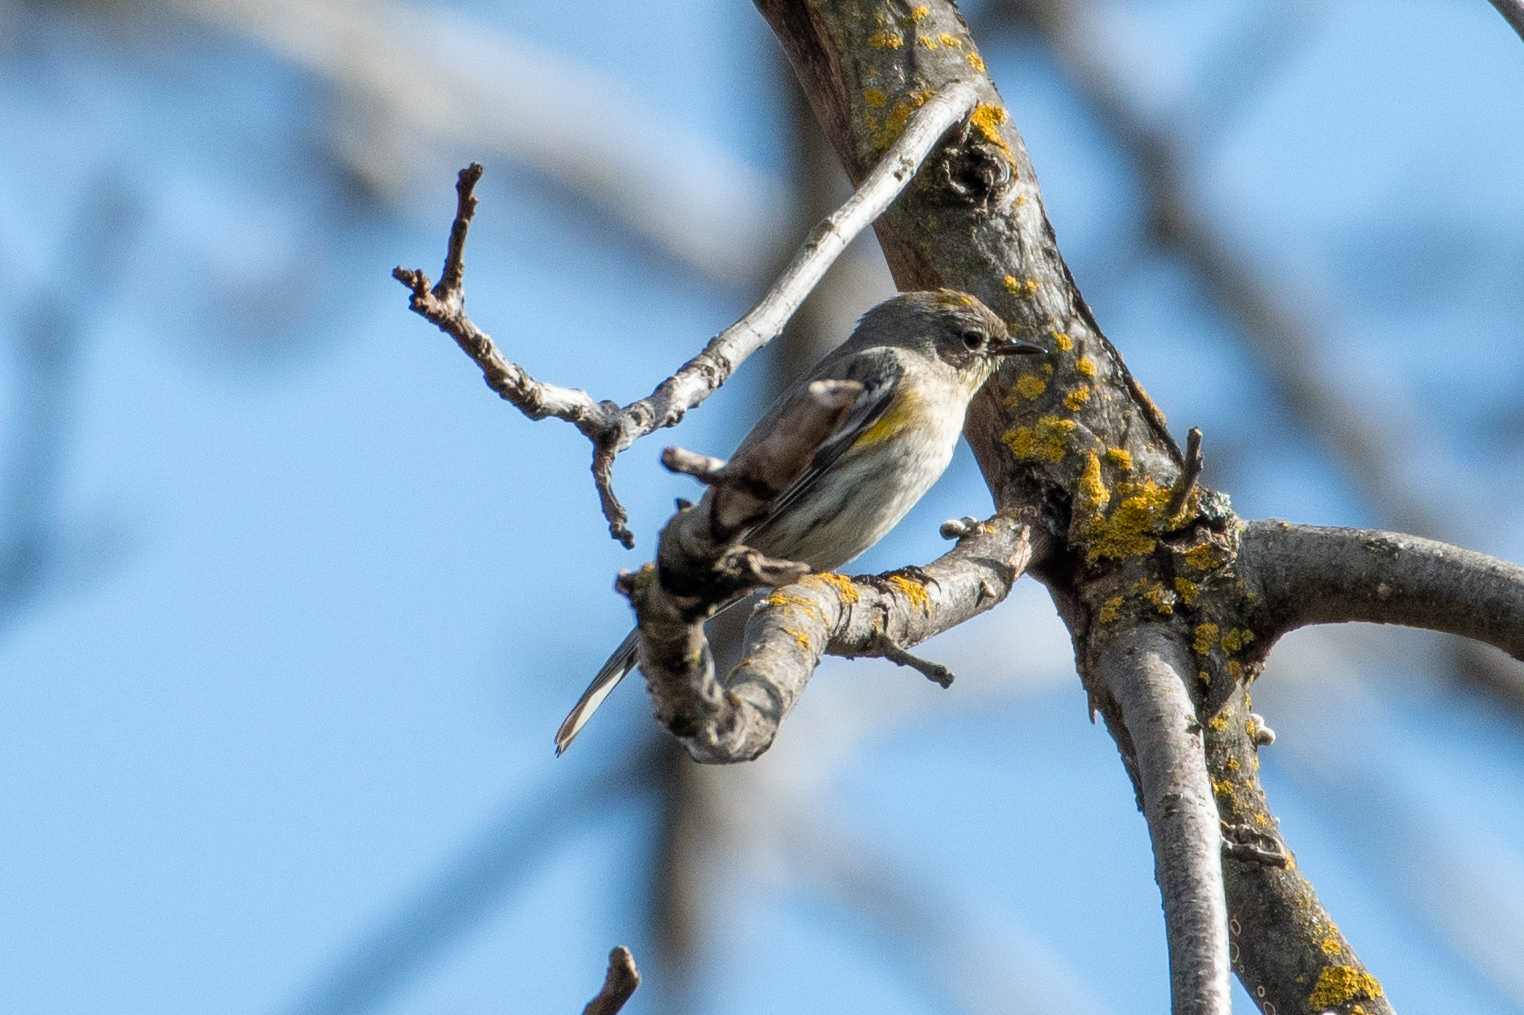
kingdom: Animalia
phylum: Chordata
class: Aves
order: Passeriformes
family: Parulidae
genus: Setophaga
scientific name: Setophaga coronata
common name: Myrtle warbler
